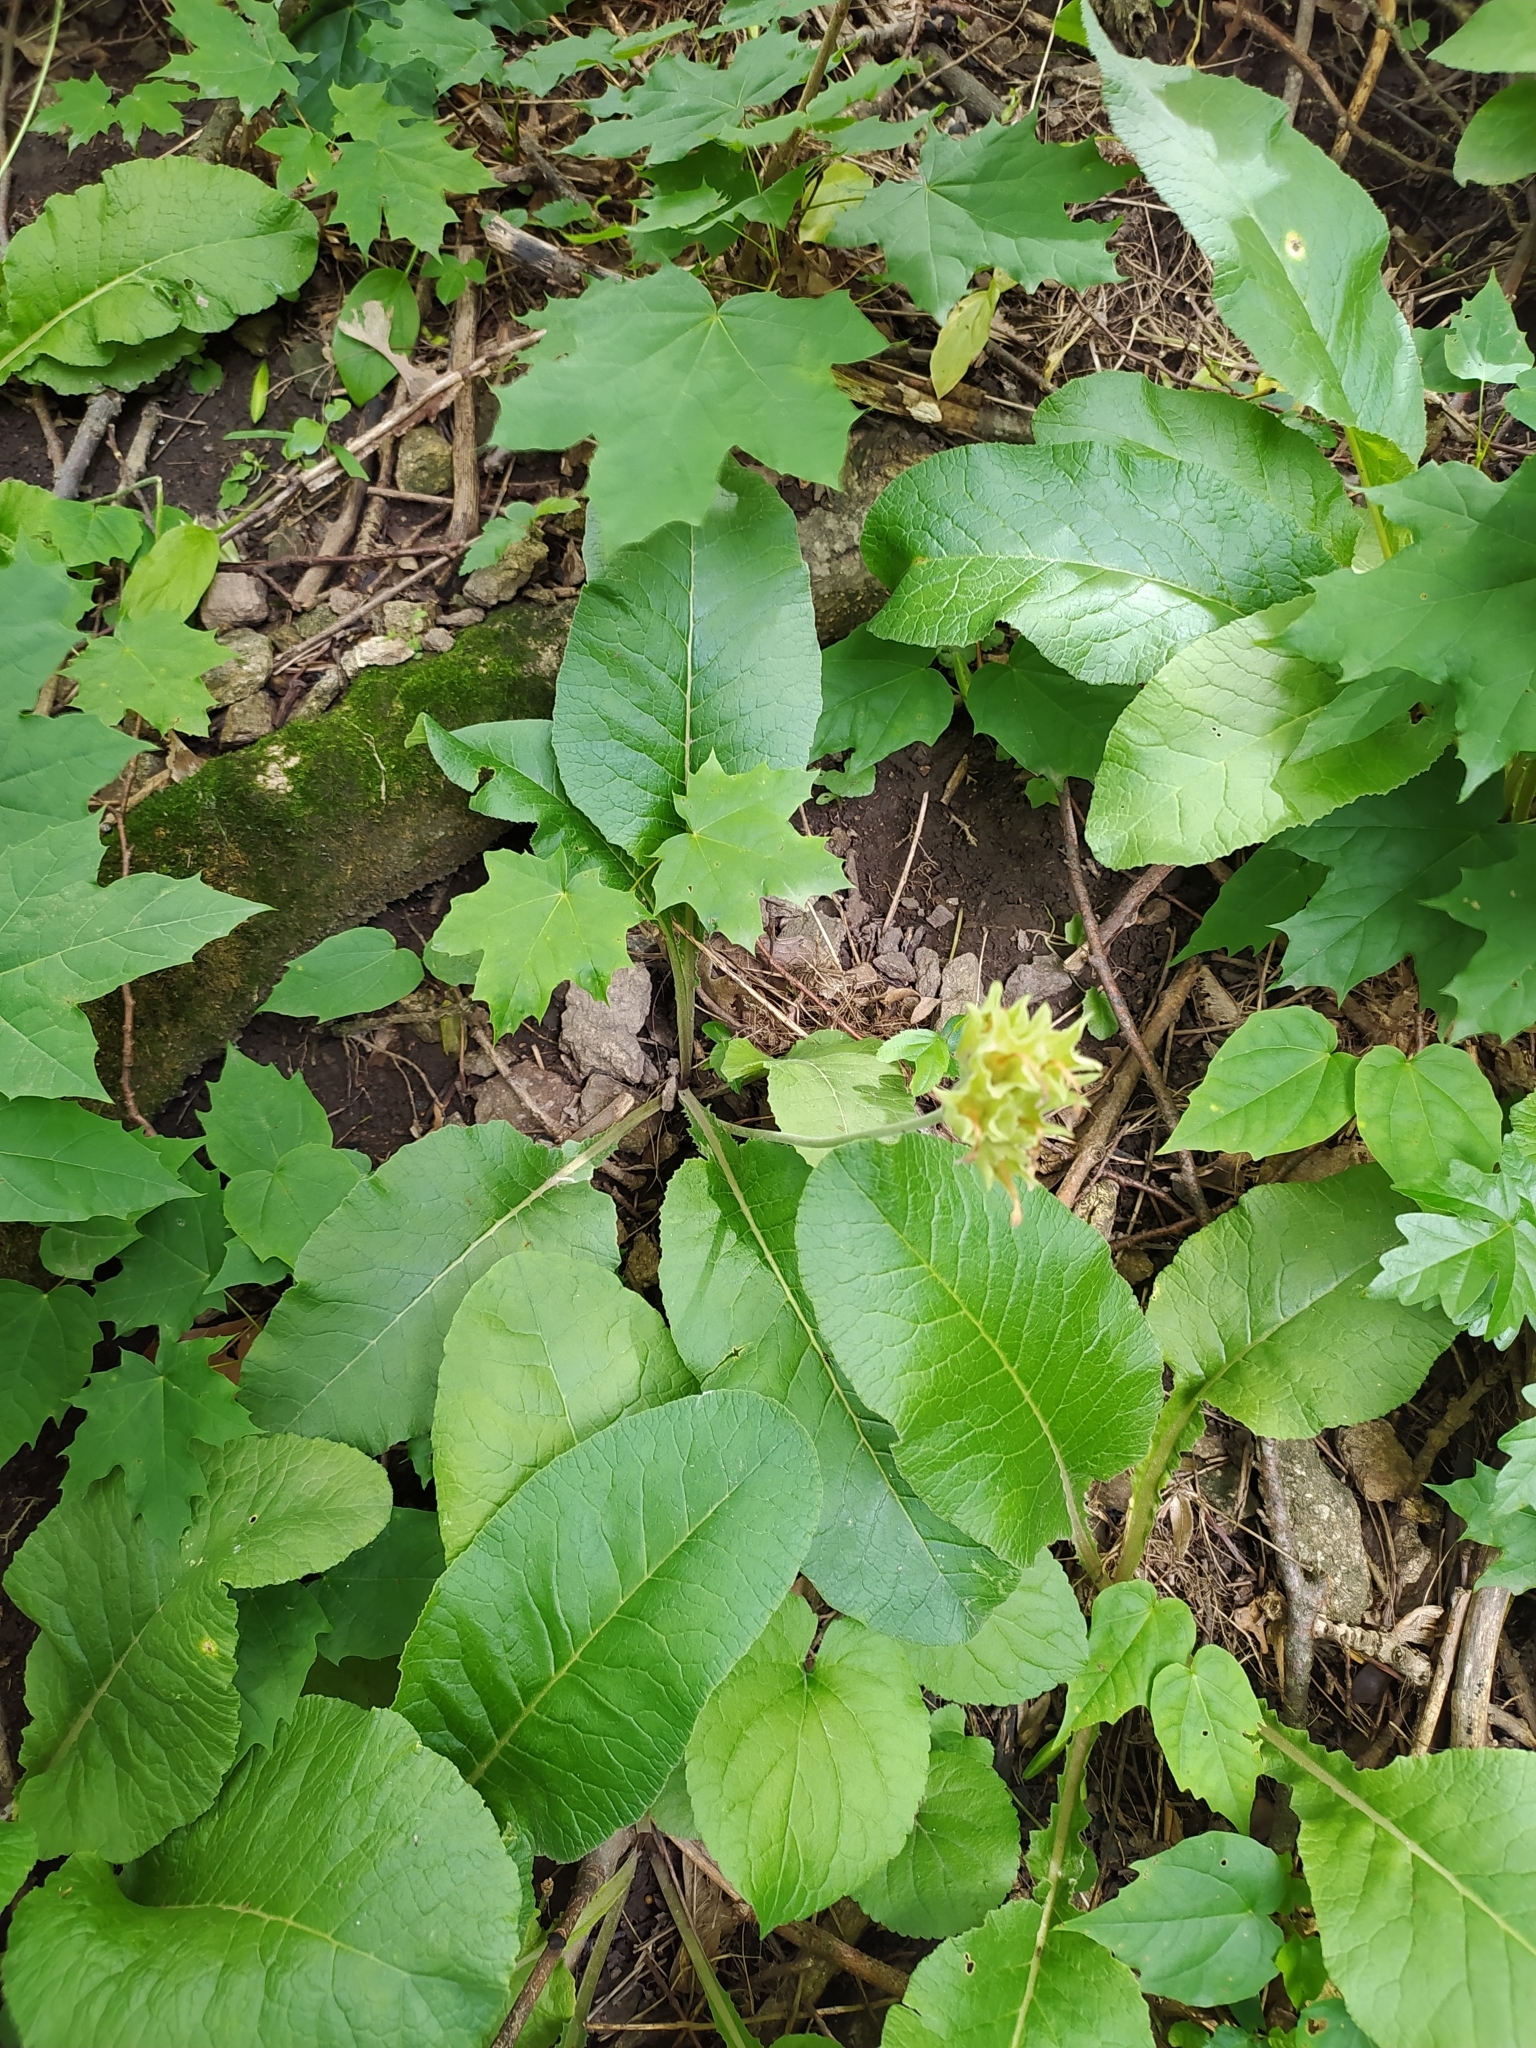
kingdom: Plantae
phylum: Tracheophyta
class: Magnoliopsida
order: Ericales
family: Primulaceae
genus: Primula
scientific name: Primula veris
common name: Cowslip
